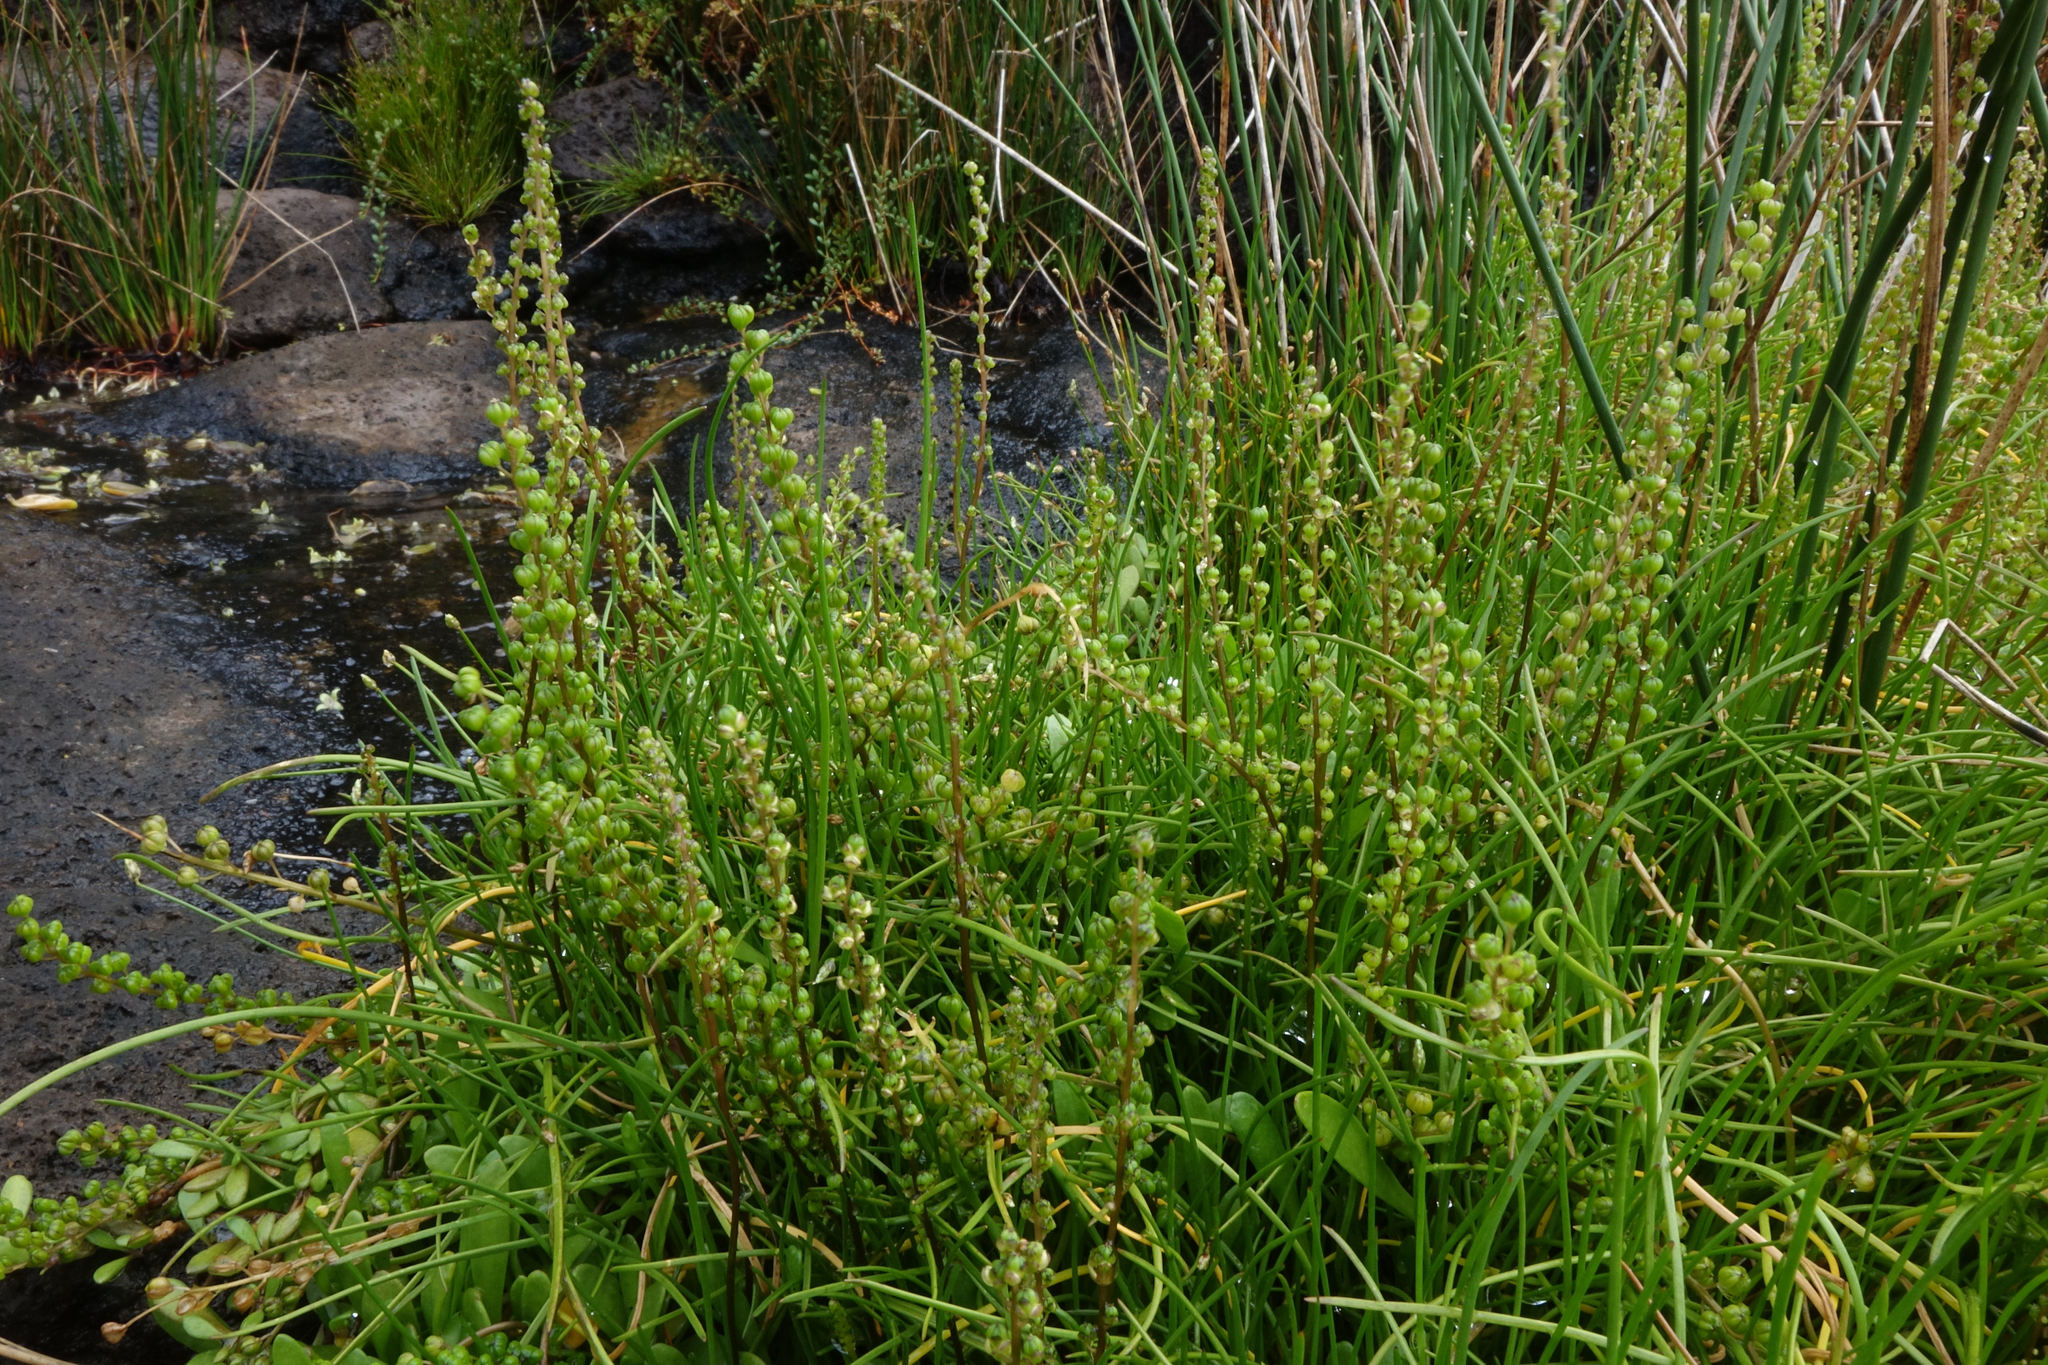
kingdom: Plantae
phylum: Tracheophyta
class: Liliopsida
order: Alismatales
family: Juncaginaceae
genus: Triglochin
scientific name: Triglochin striata
